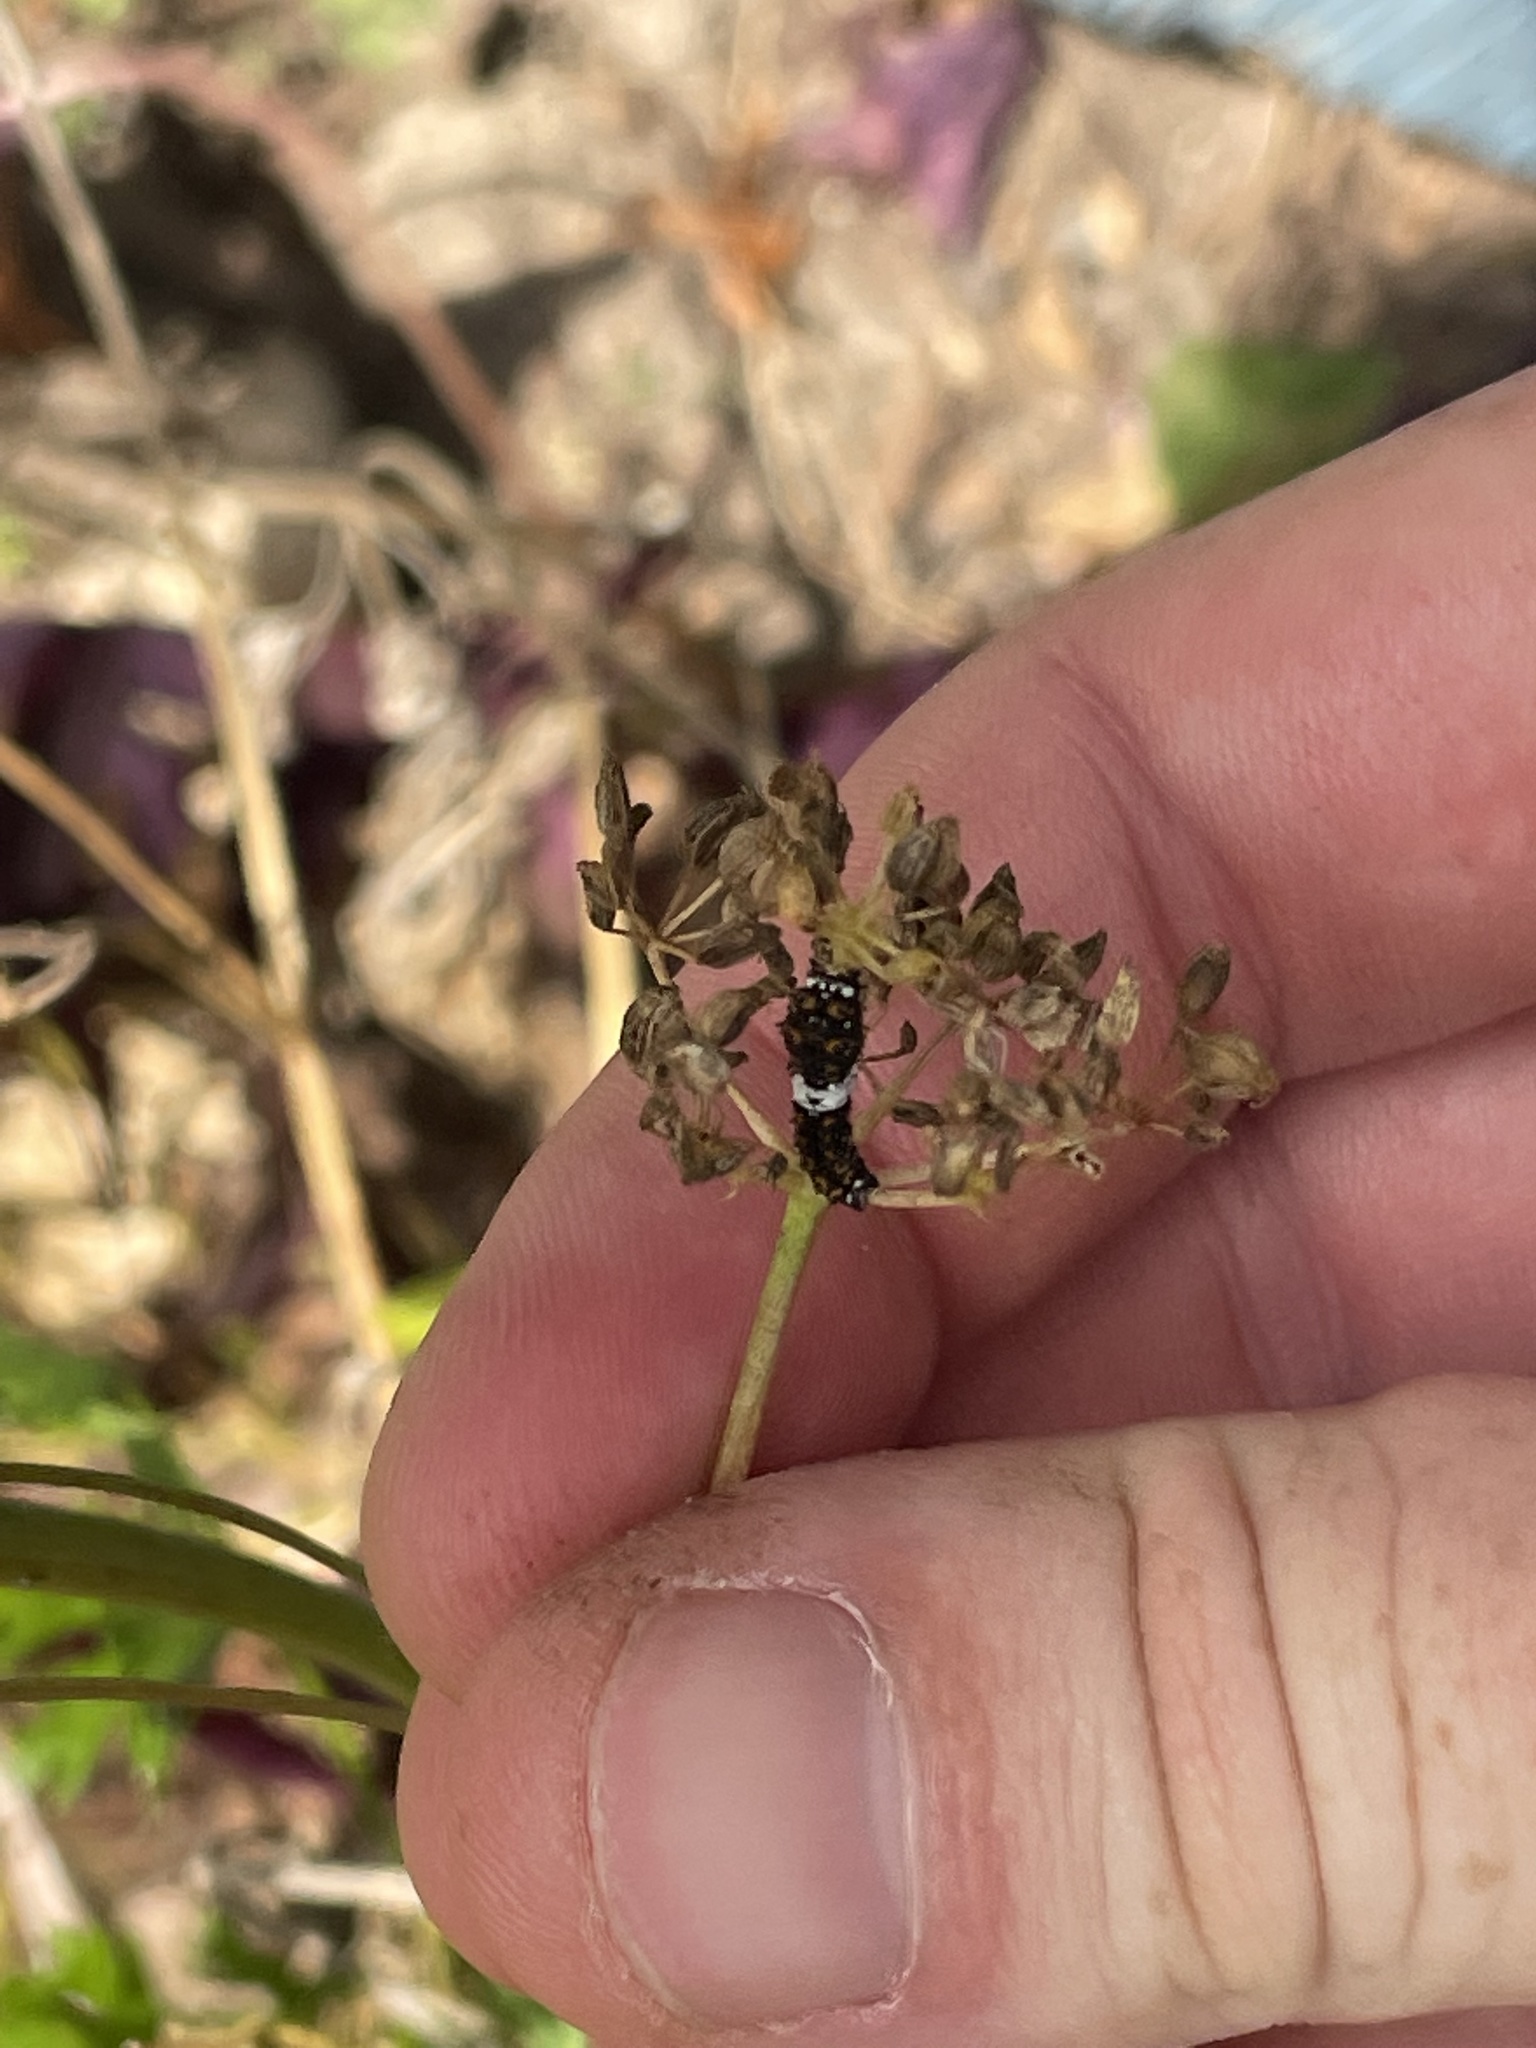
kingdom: Animalia
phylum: Arthropoda
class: Insecta
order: Lepidoptera
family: Papilionidae
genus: Papilio
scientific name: Papilio polyxenes
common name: Black swallowtail
